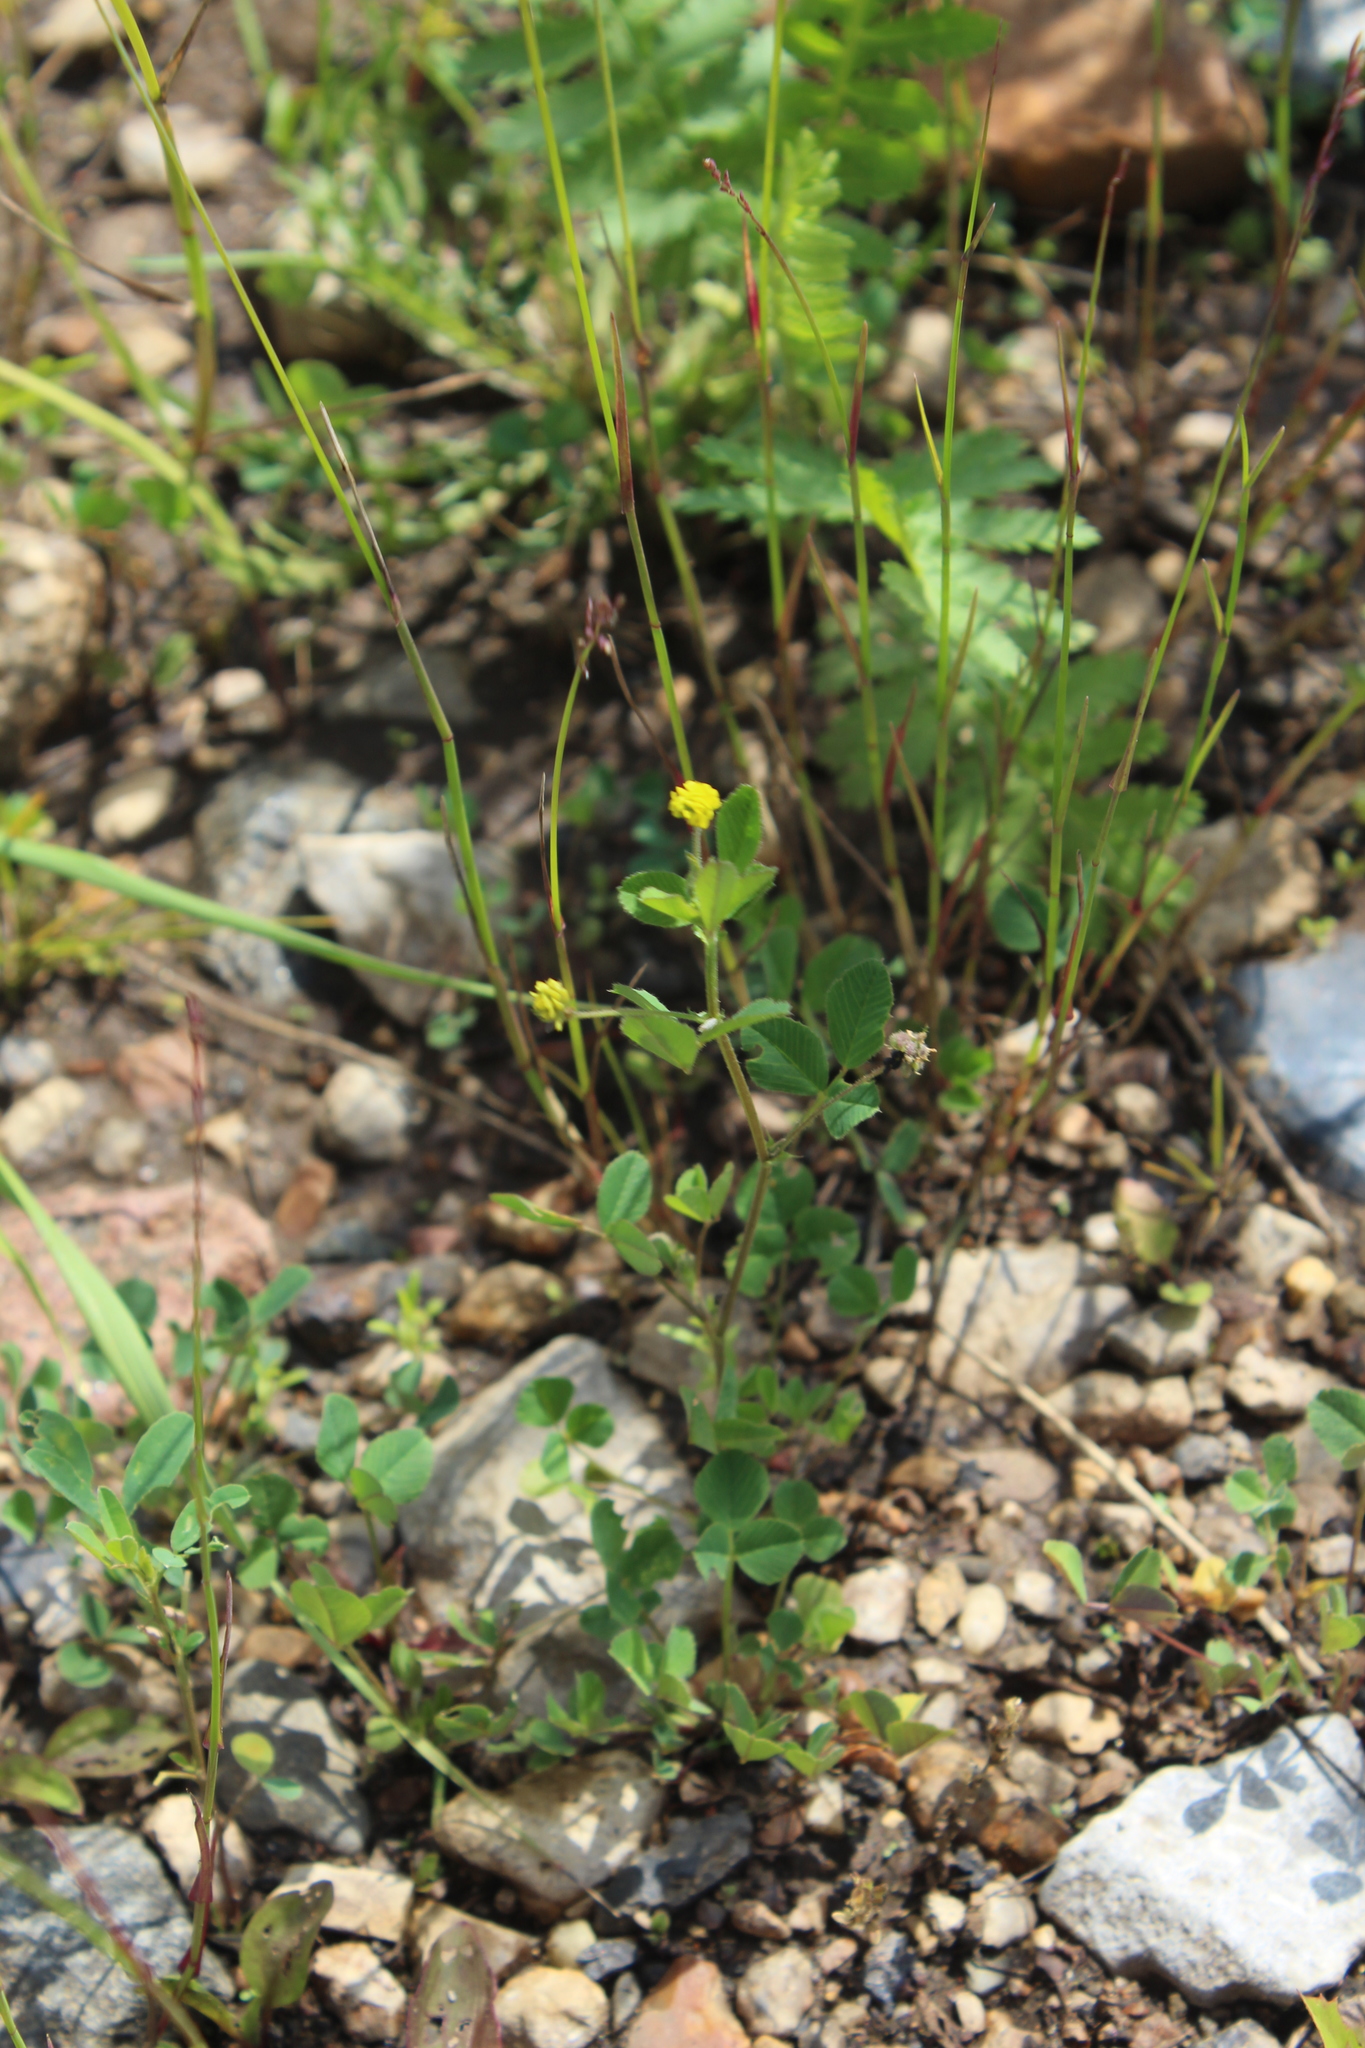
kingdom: Plantae
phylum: Tracheophyta
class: Magnoliopsida
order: Fabales
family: Fabaceae
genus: Medicago
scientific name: Medicago lupulina
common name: Black medick
